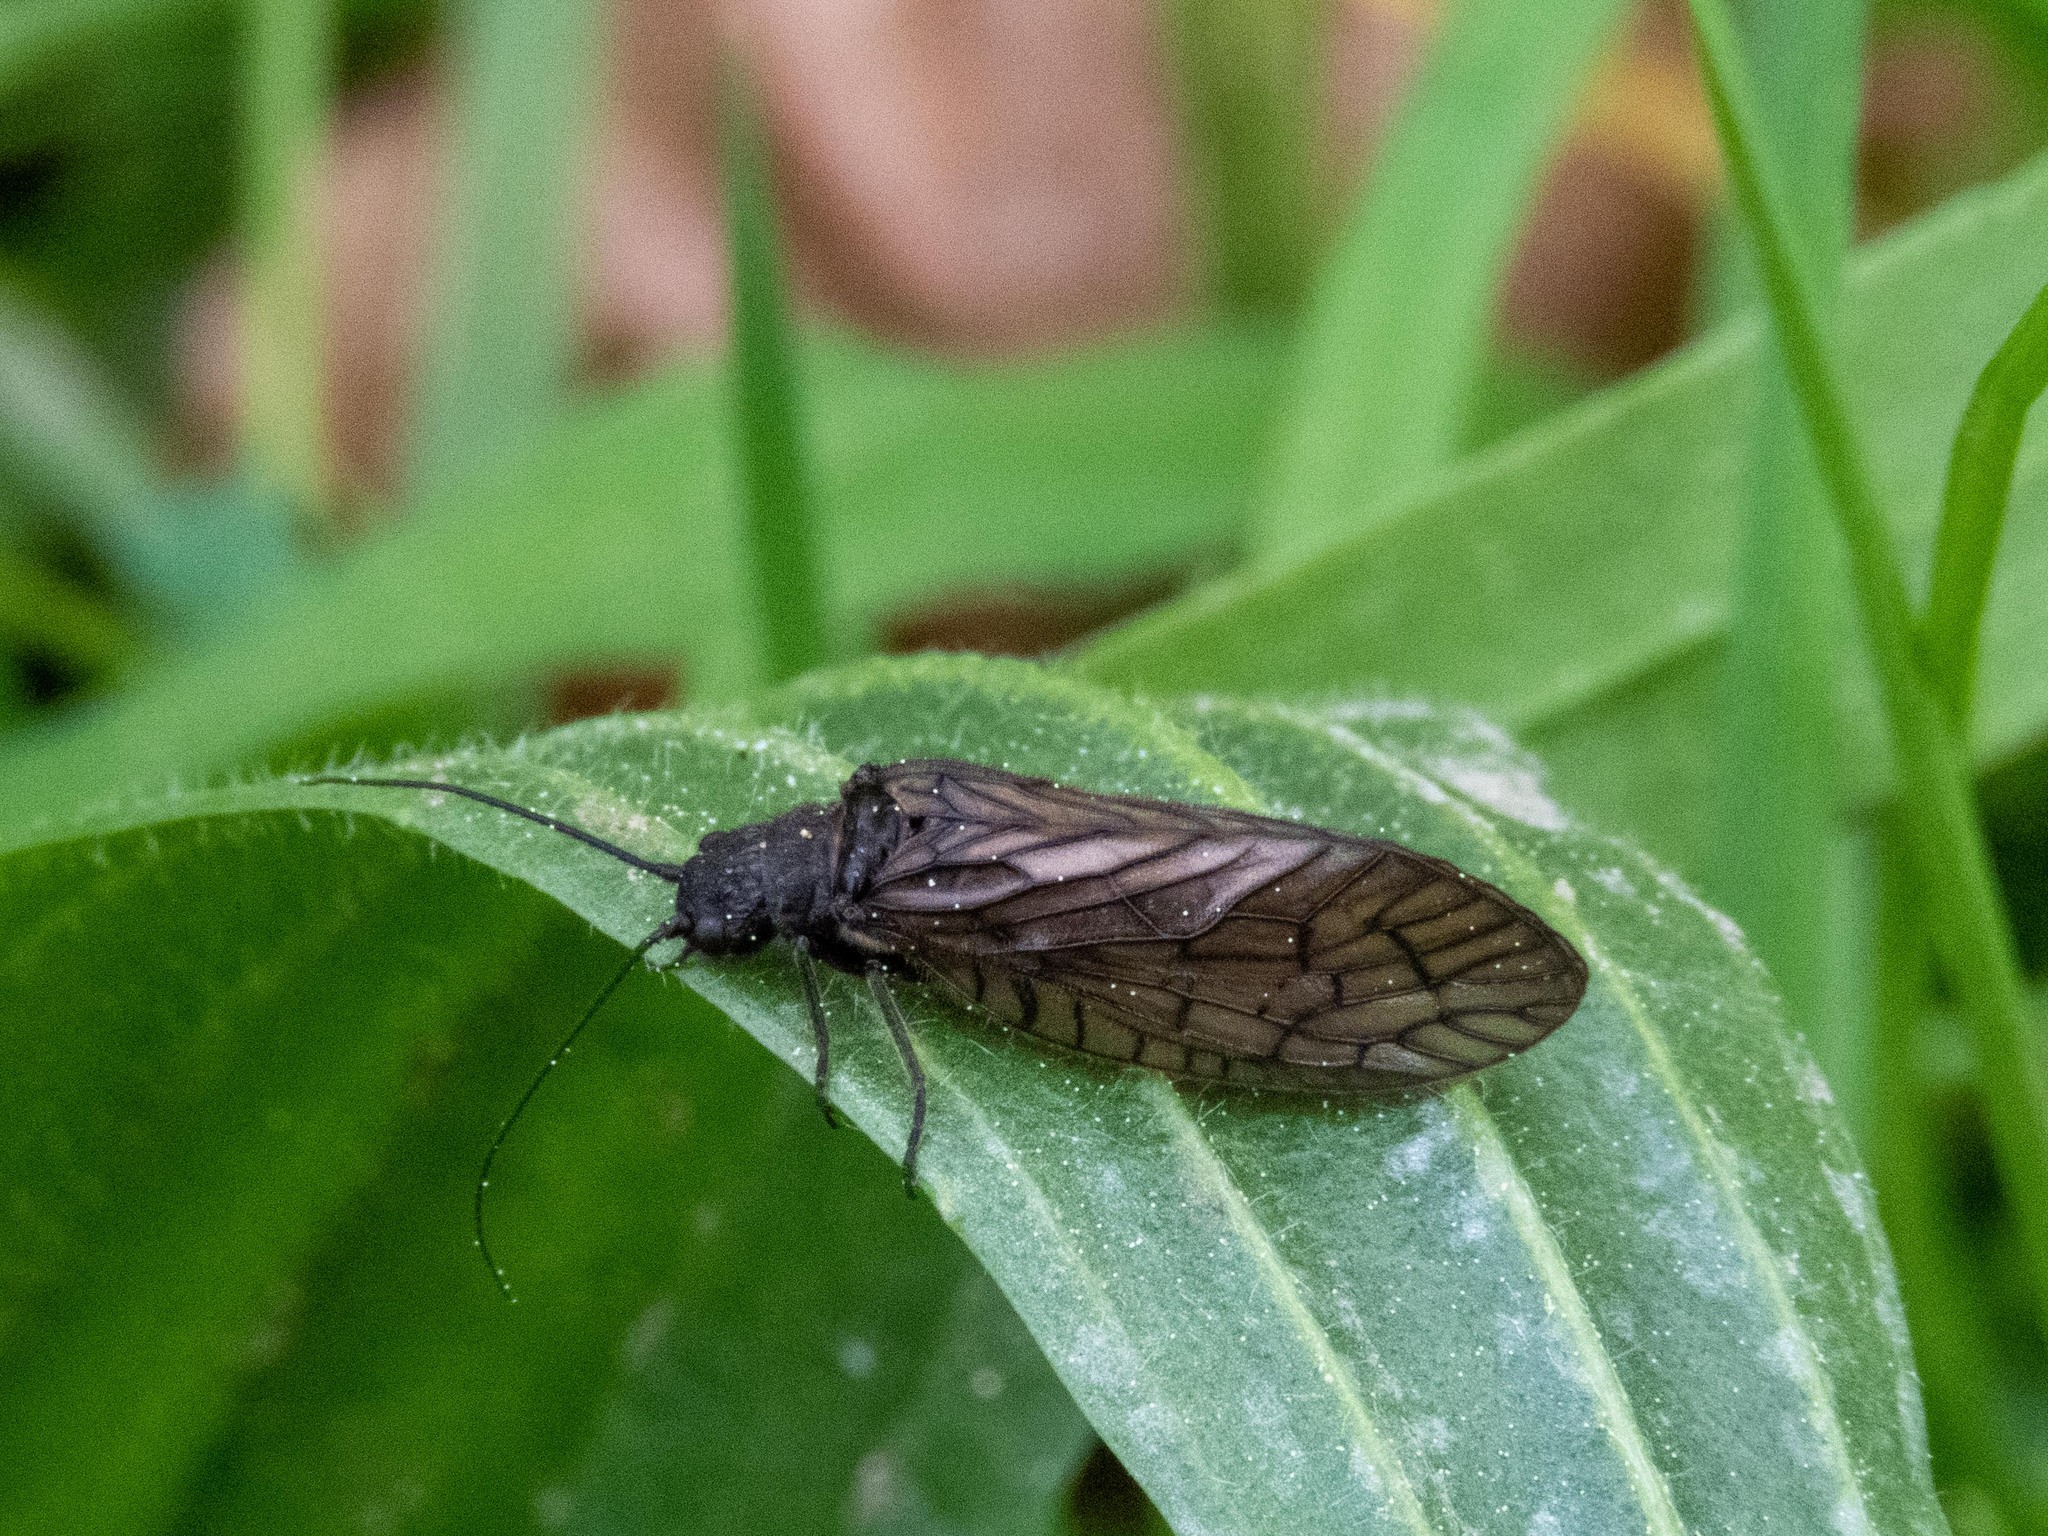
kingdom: Animalia
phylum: Arthropoda
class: Insecta
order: Megaloptera
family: Sialidae
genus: Sialis
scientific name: Sialis
